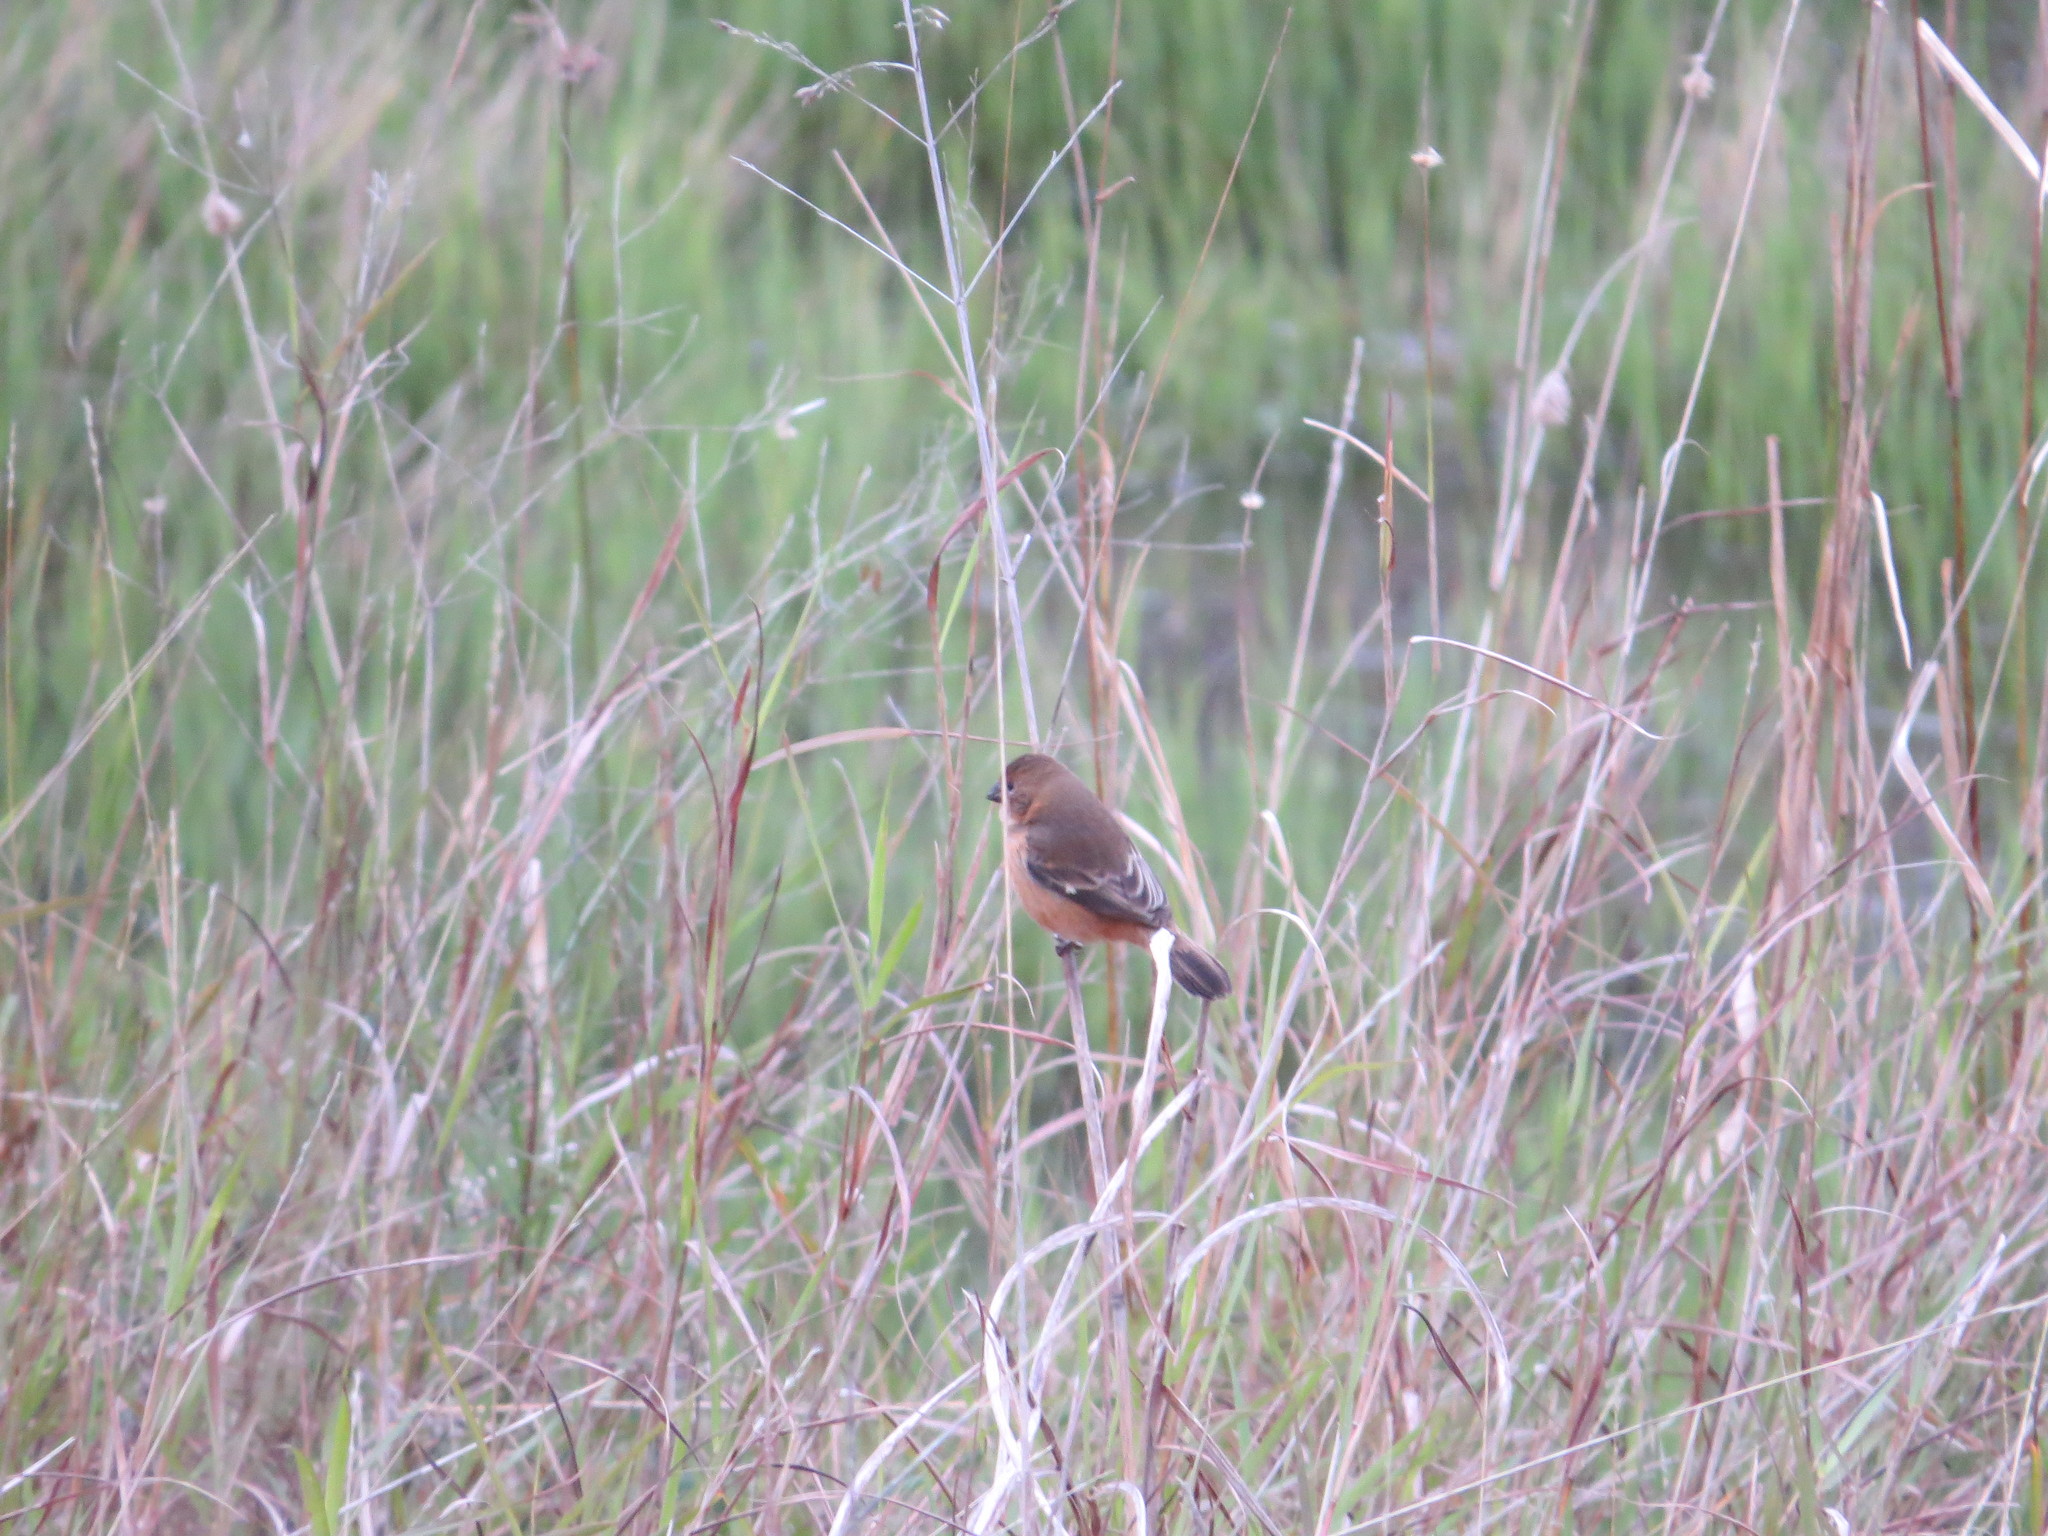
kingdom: Animalia
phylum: Chordata
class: Aves
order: Passeriformes
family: Thraupidae
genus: Sporophila
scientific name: Sporophila collaris
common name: Rusty-collared seedeater
